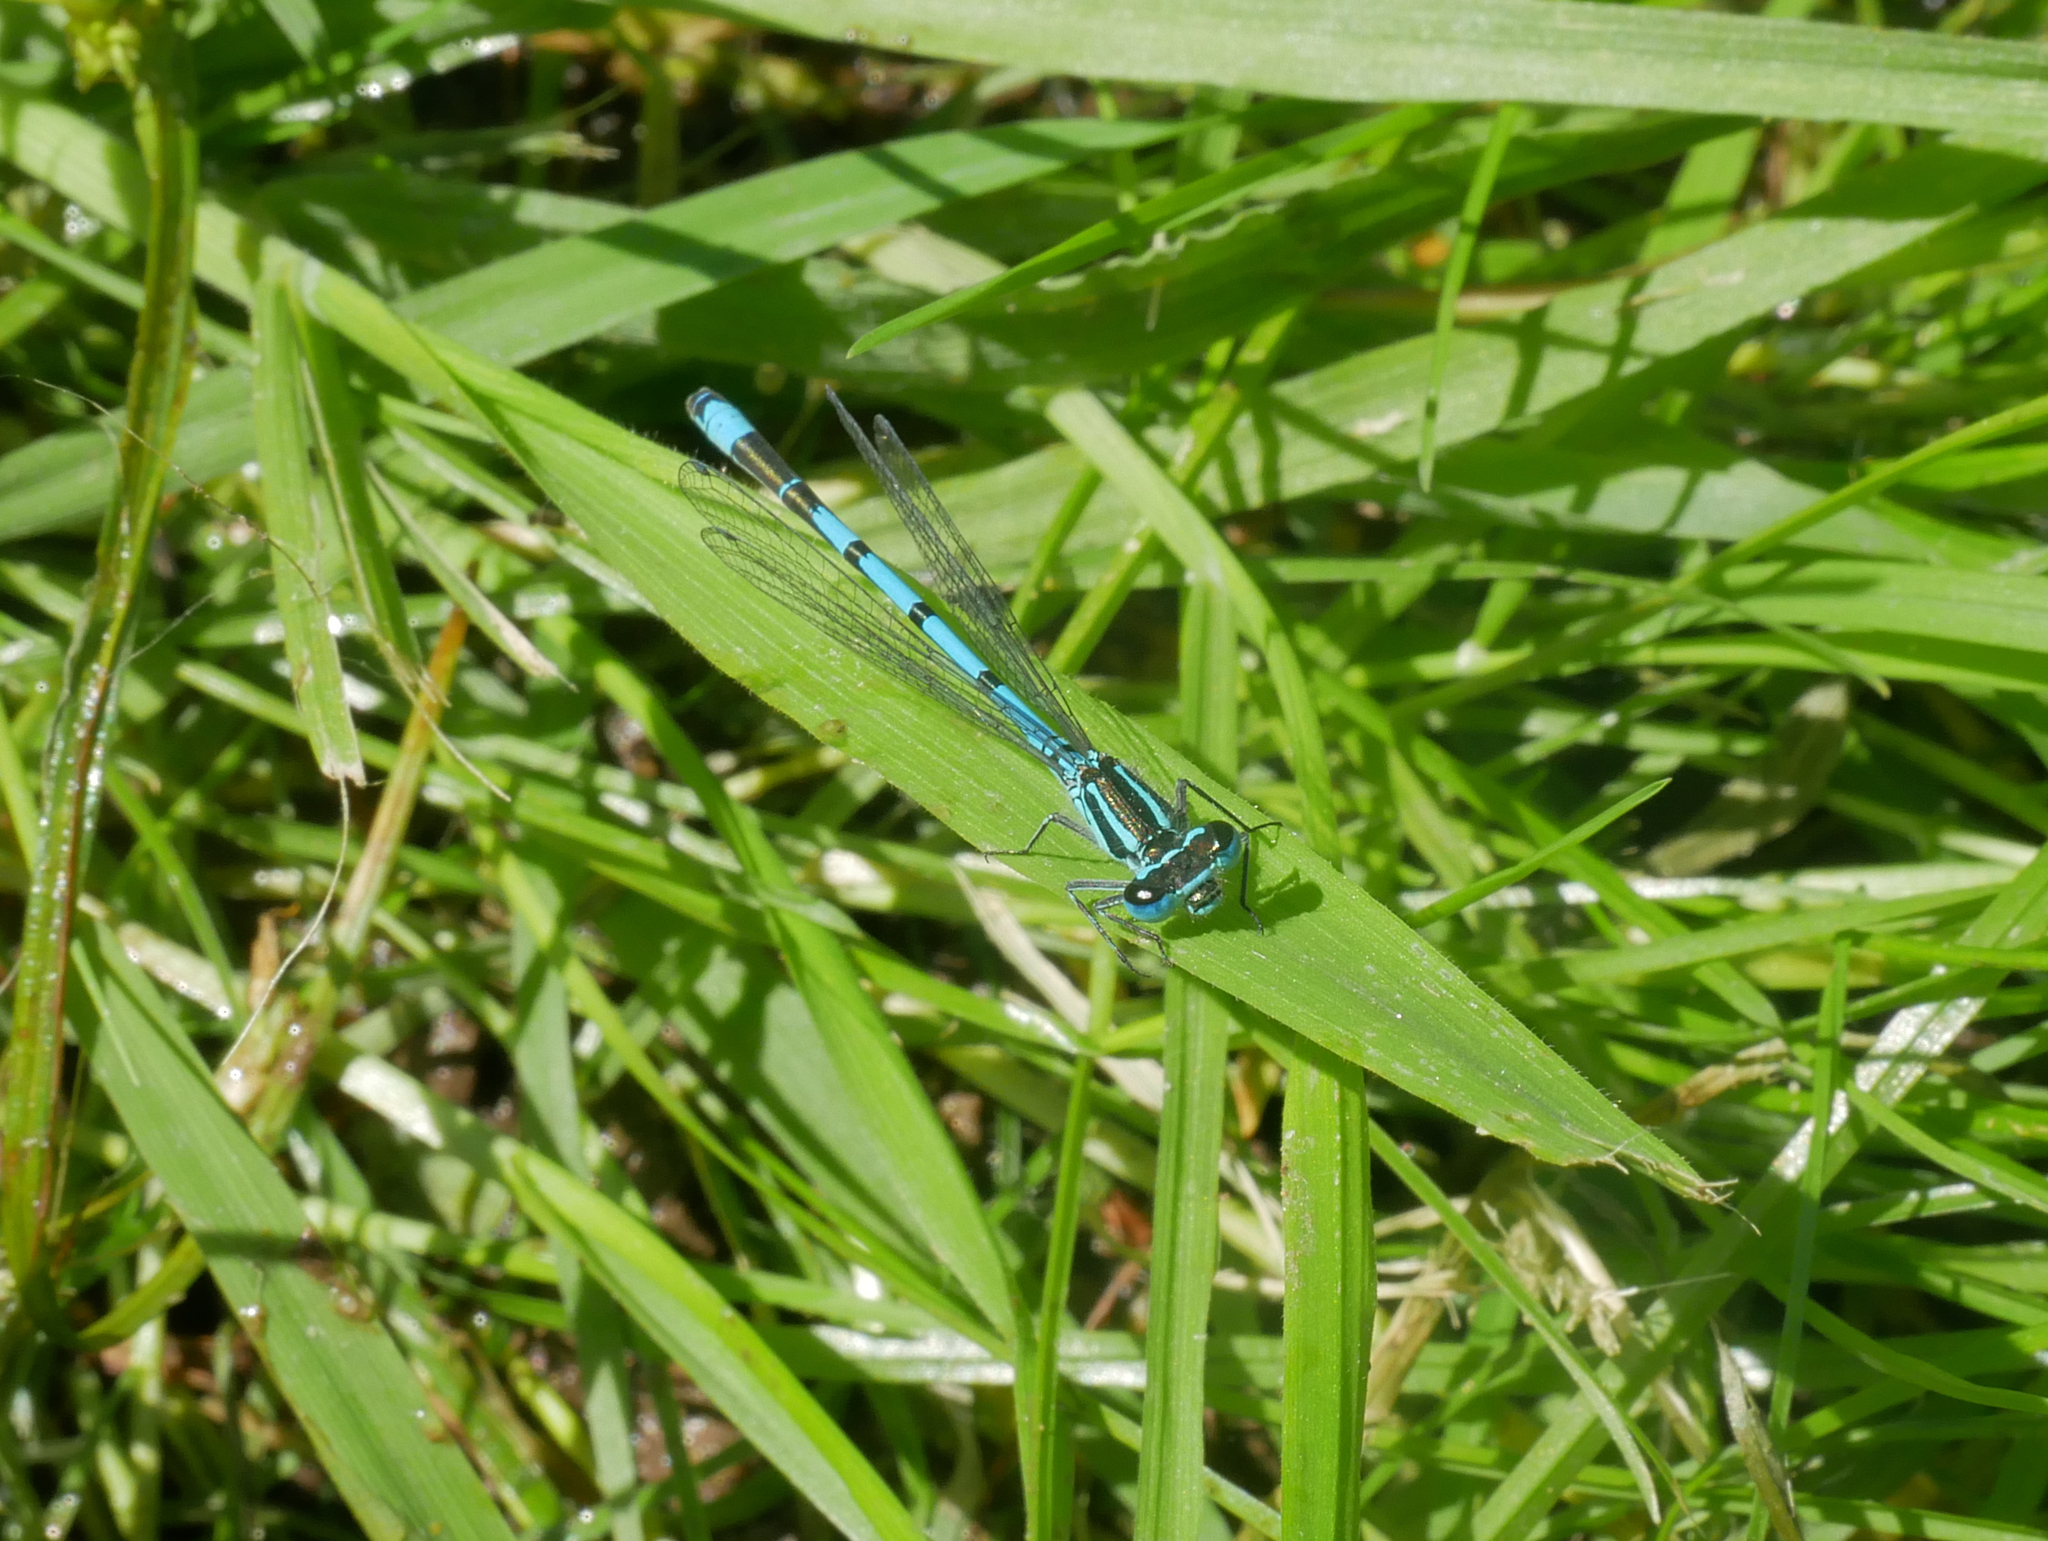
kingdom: Animalia
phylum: Arthropoda
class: Insecta
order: Odonata
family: Coenagrionidae
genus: Coenagrion
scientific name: Coenagrion puella
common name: Azure damselfly
